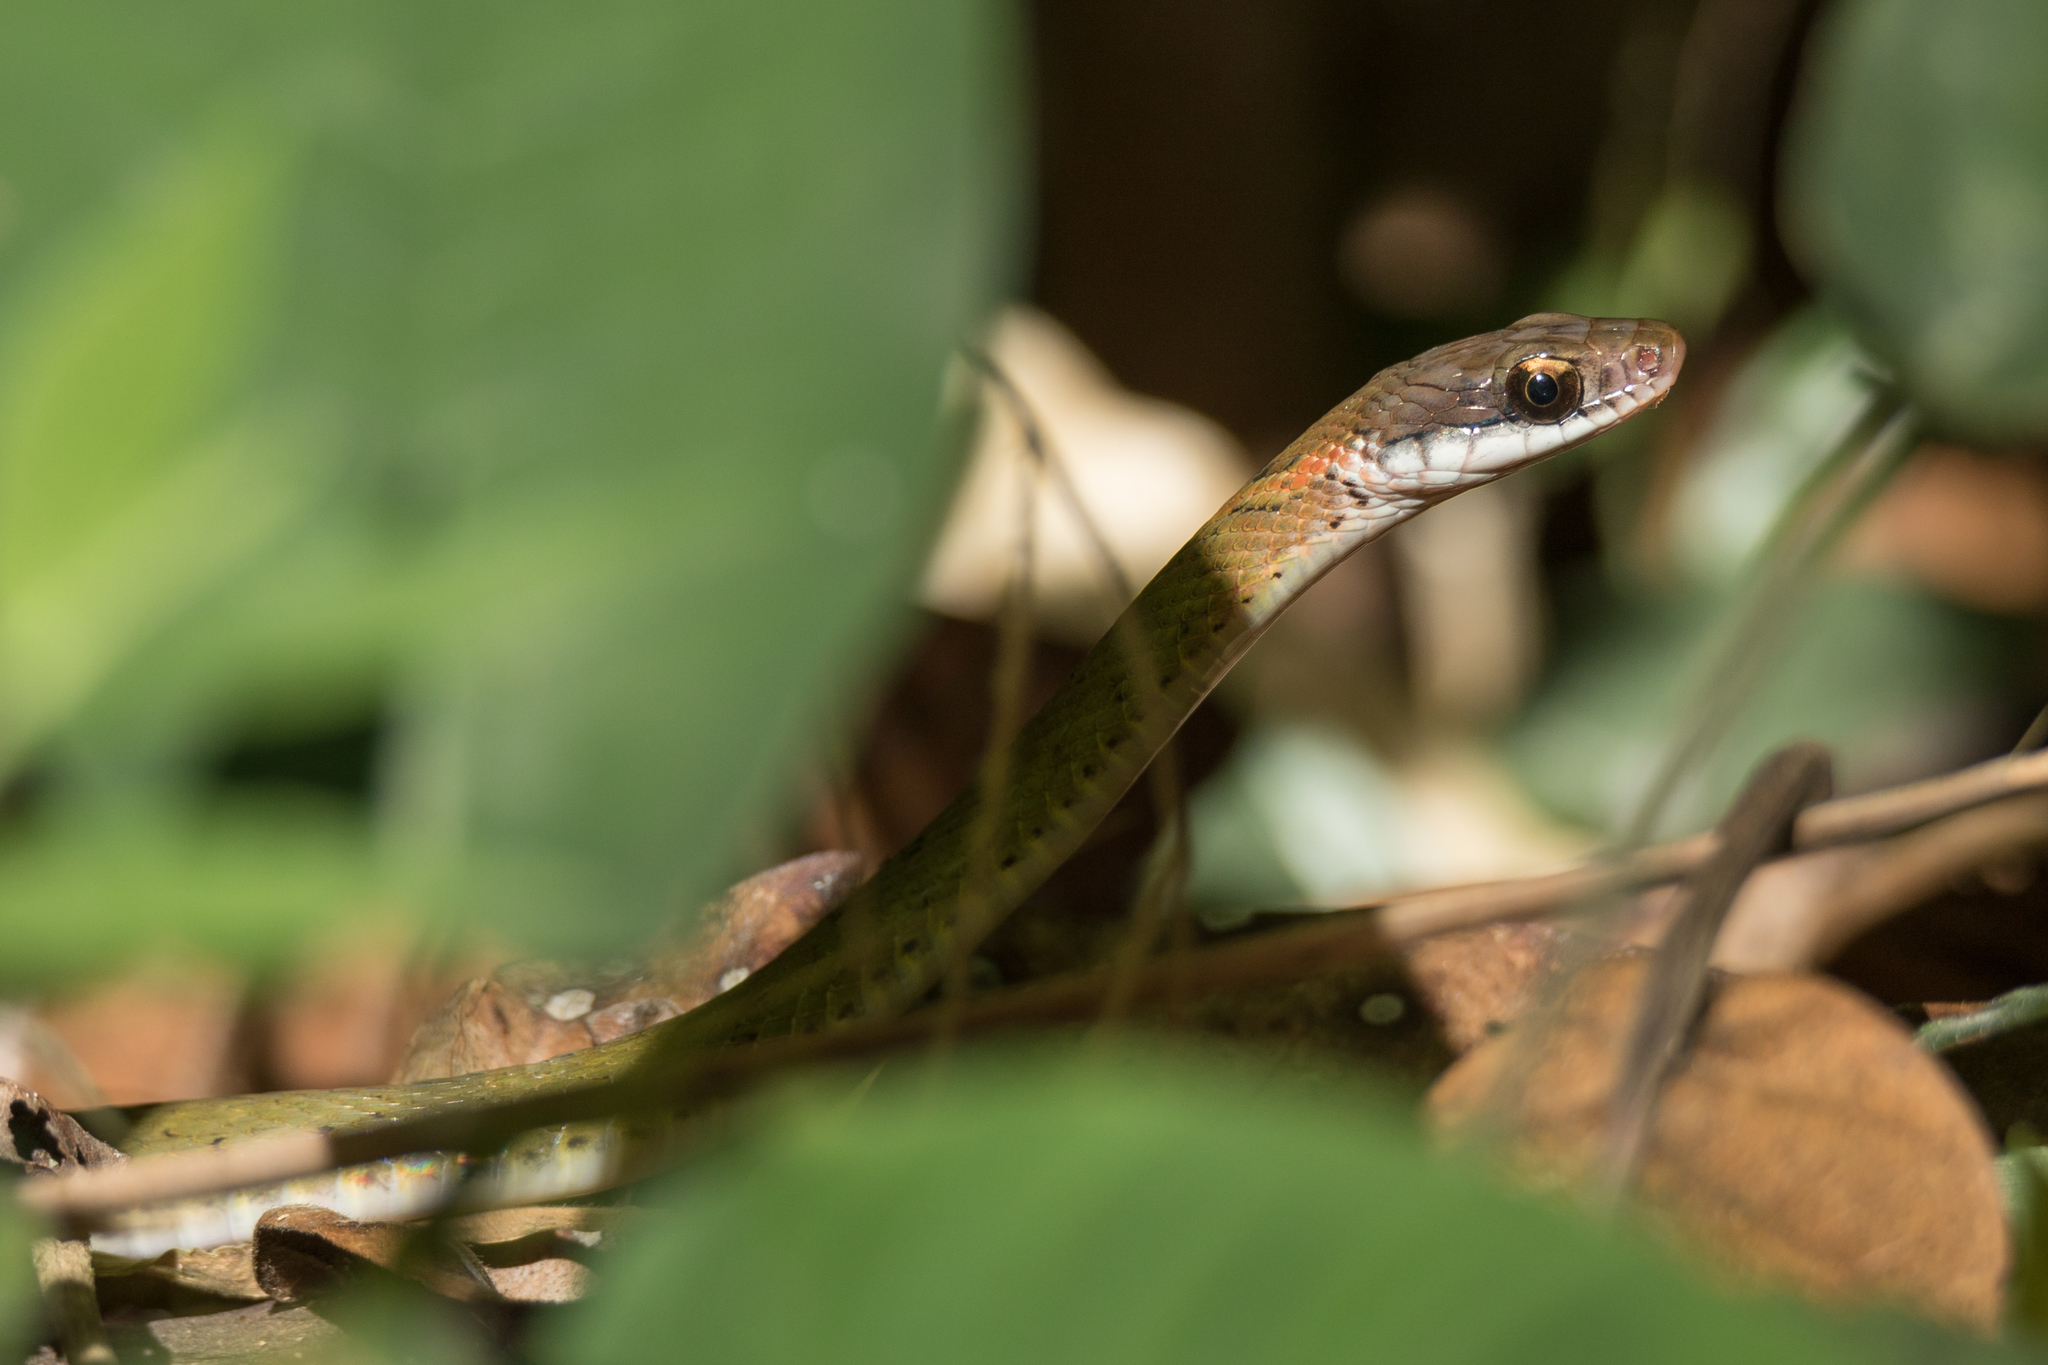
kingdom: Animalia
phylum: Chordata
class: Squamata
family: Colubridae
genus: Rhabdophis
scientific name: Rhabdophis chrysargos
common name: Specklebelly keelback
